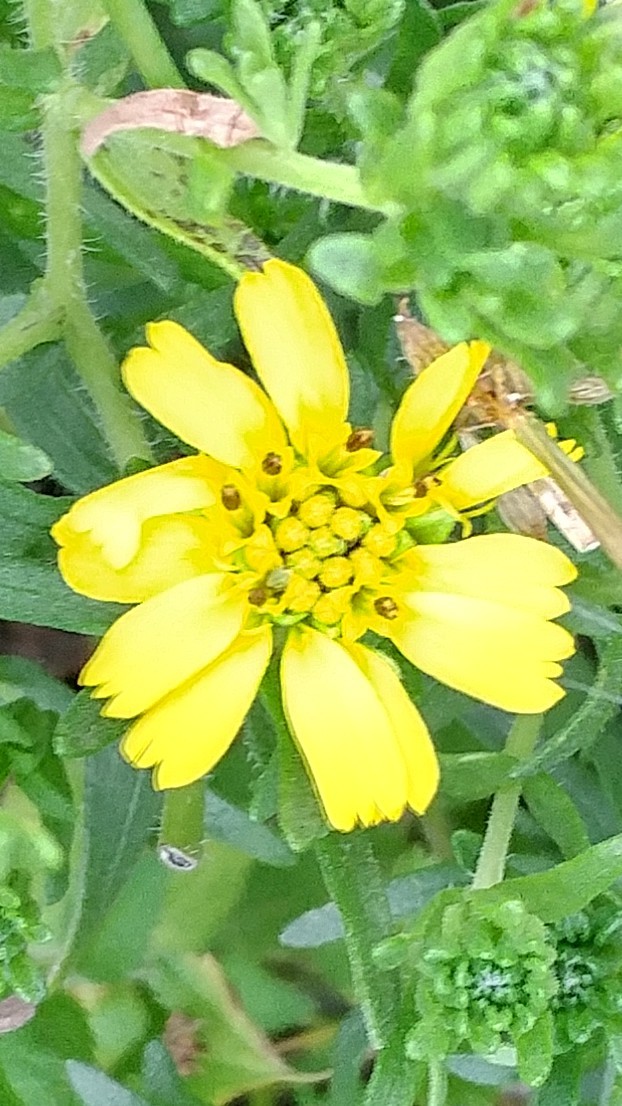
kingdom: Plantae
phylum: Tracheophyta
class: Magnoliopsida
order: Asterales
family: Asteraceae
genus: Deinandra
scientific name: Deinandra clementina
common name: Island tarplant
